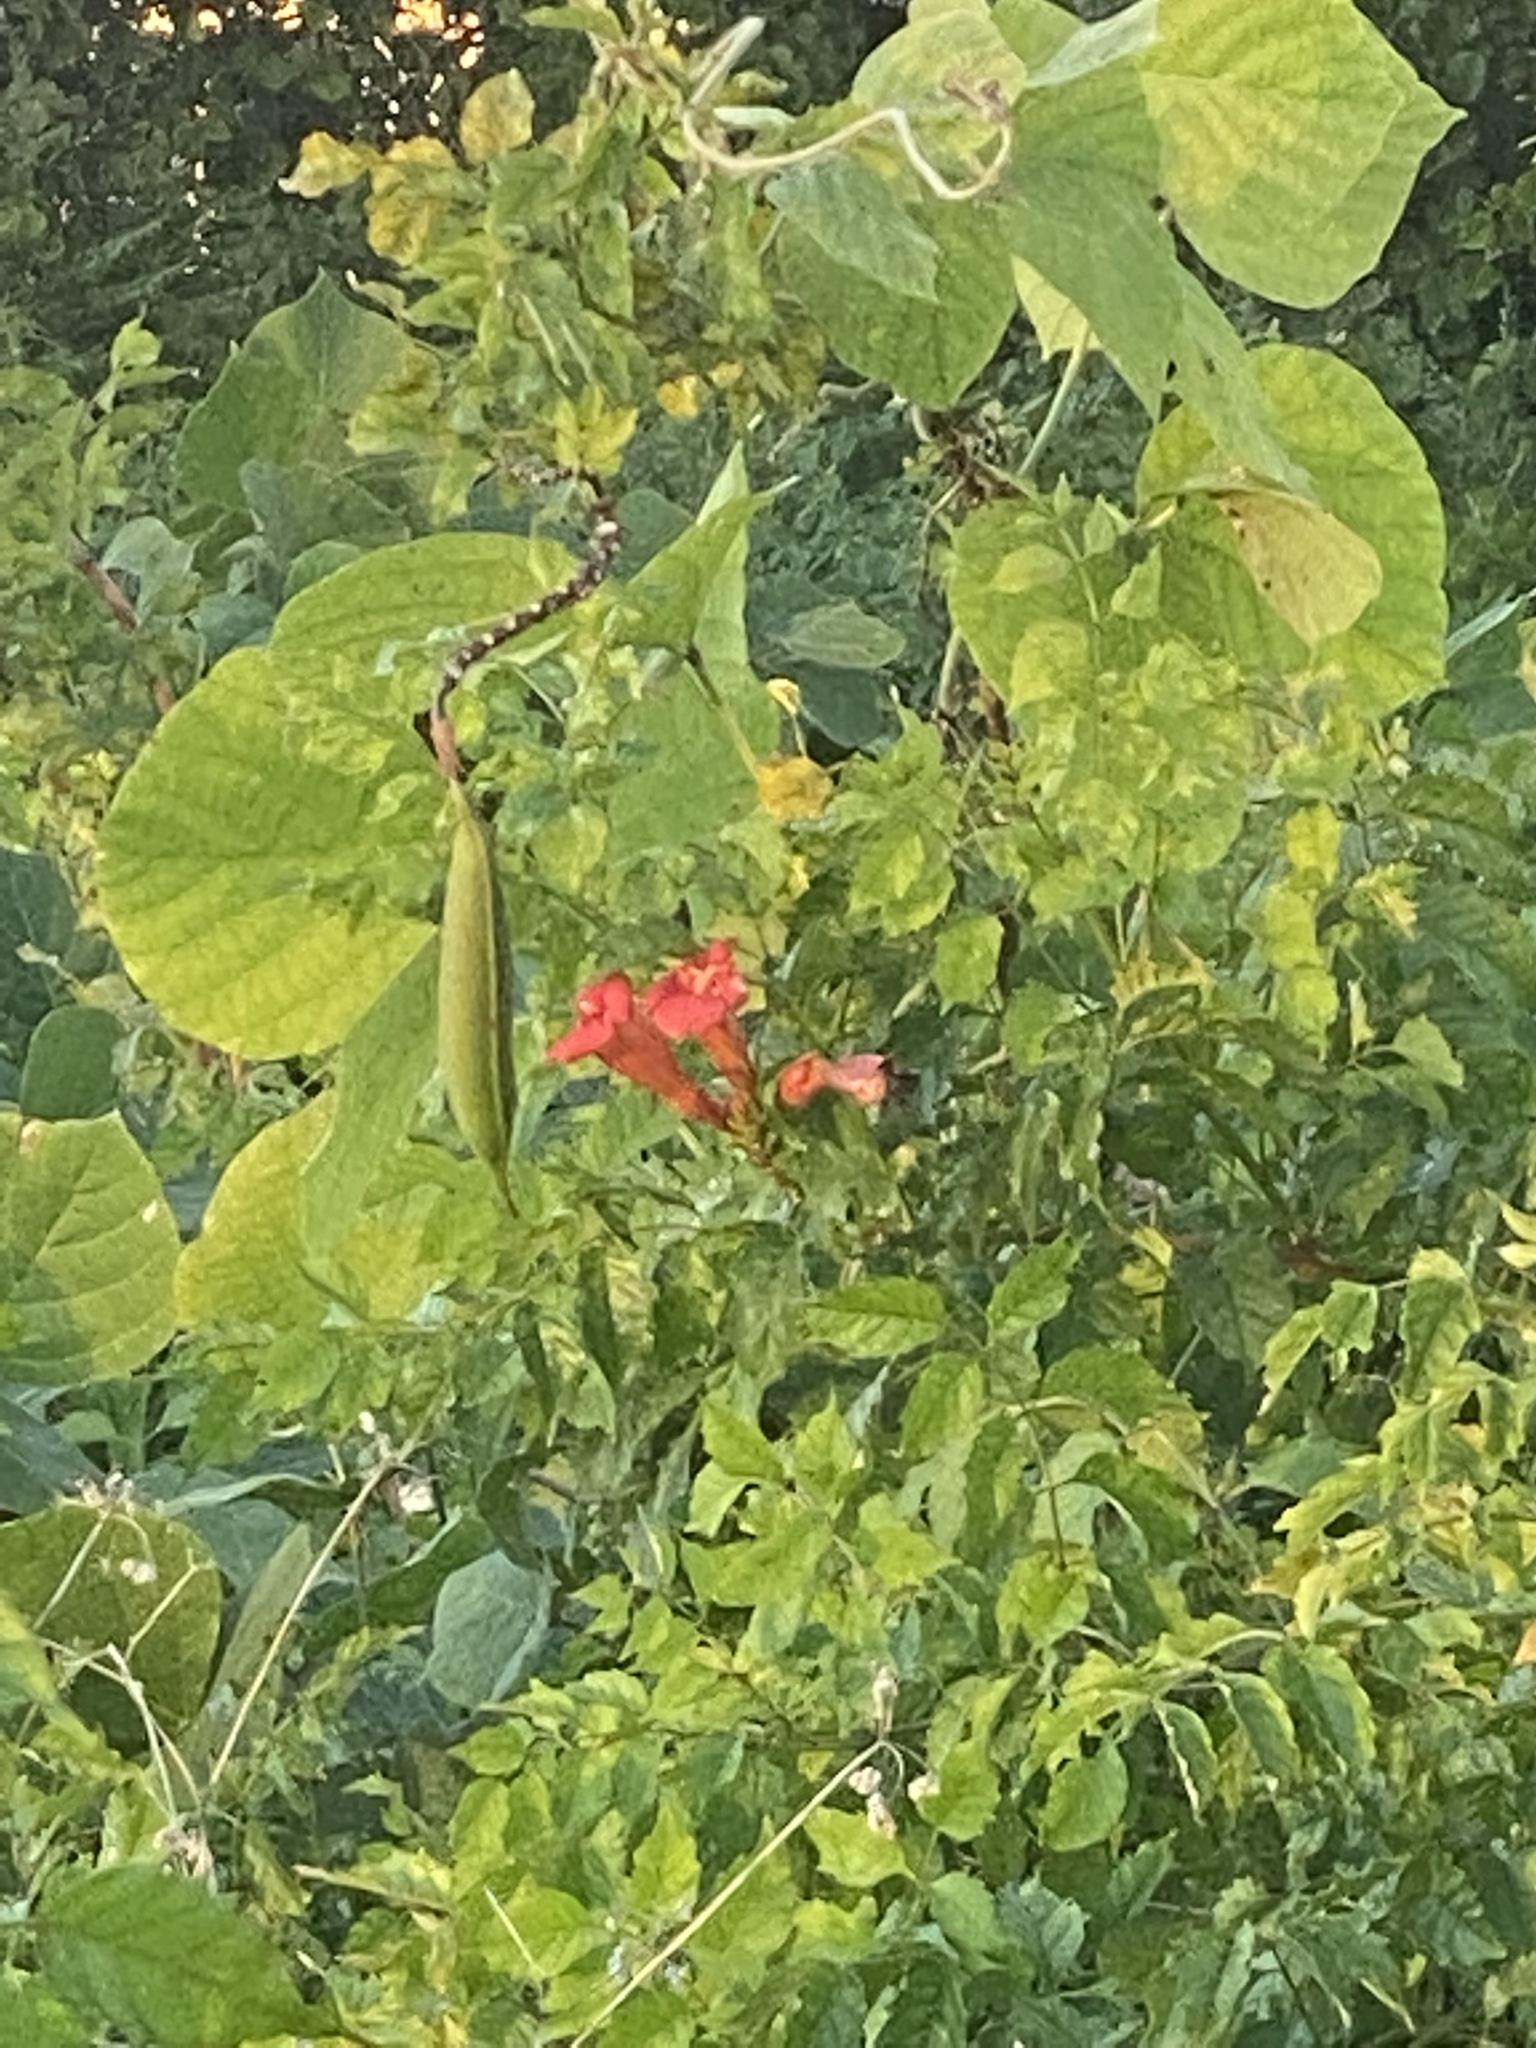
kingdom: Plantae
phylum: Tracheophyta
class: Magnoliopsida
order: Lamiales
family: Bignoniaceae
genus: Campsis
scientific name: Campsis radicans
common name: Trumpet-creeper
